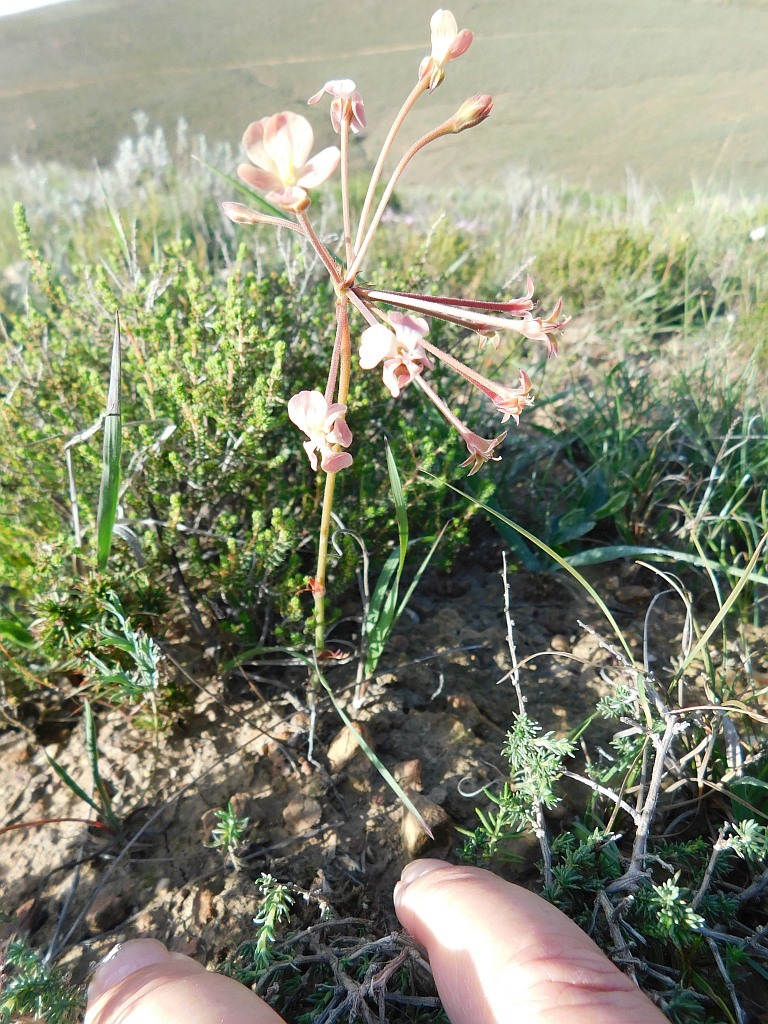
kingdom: Plantae
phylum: Tracheophyta
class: Magnoliopsida
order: Geraniales
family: Geraniaceae
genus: Pelargonium
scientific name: Pelargonium pillansii
